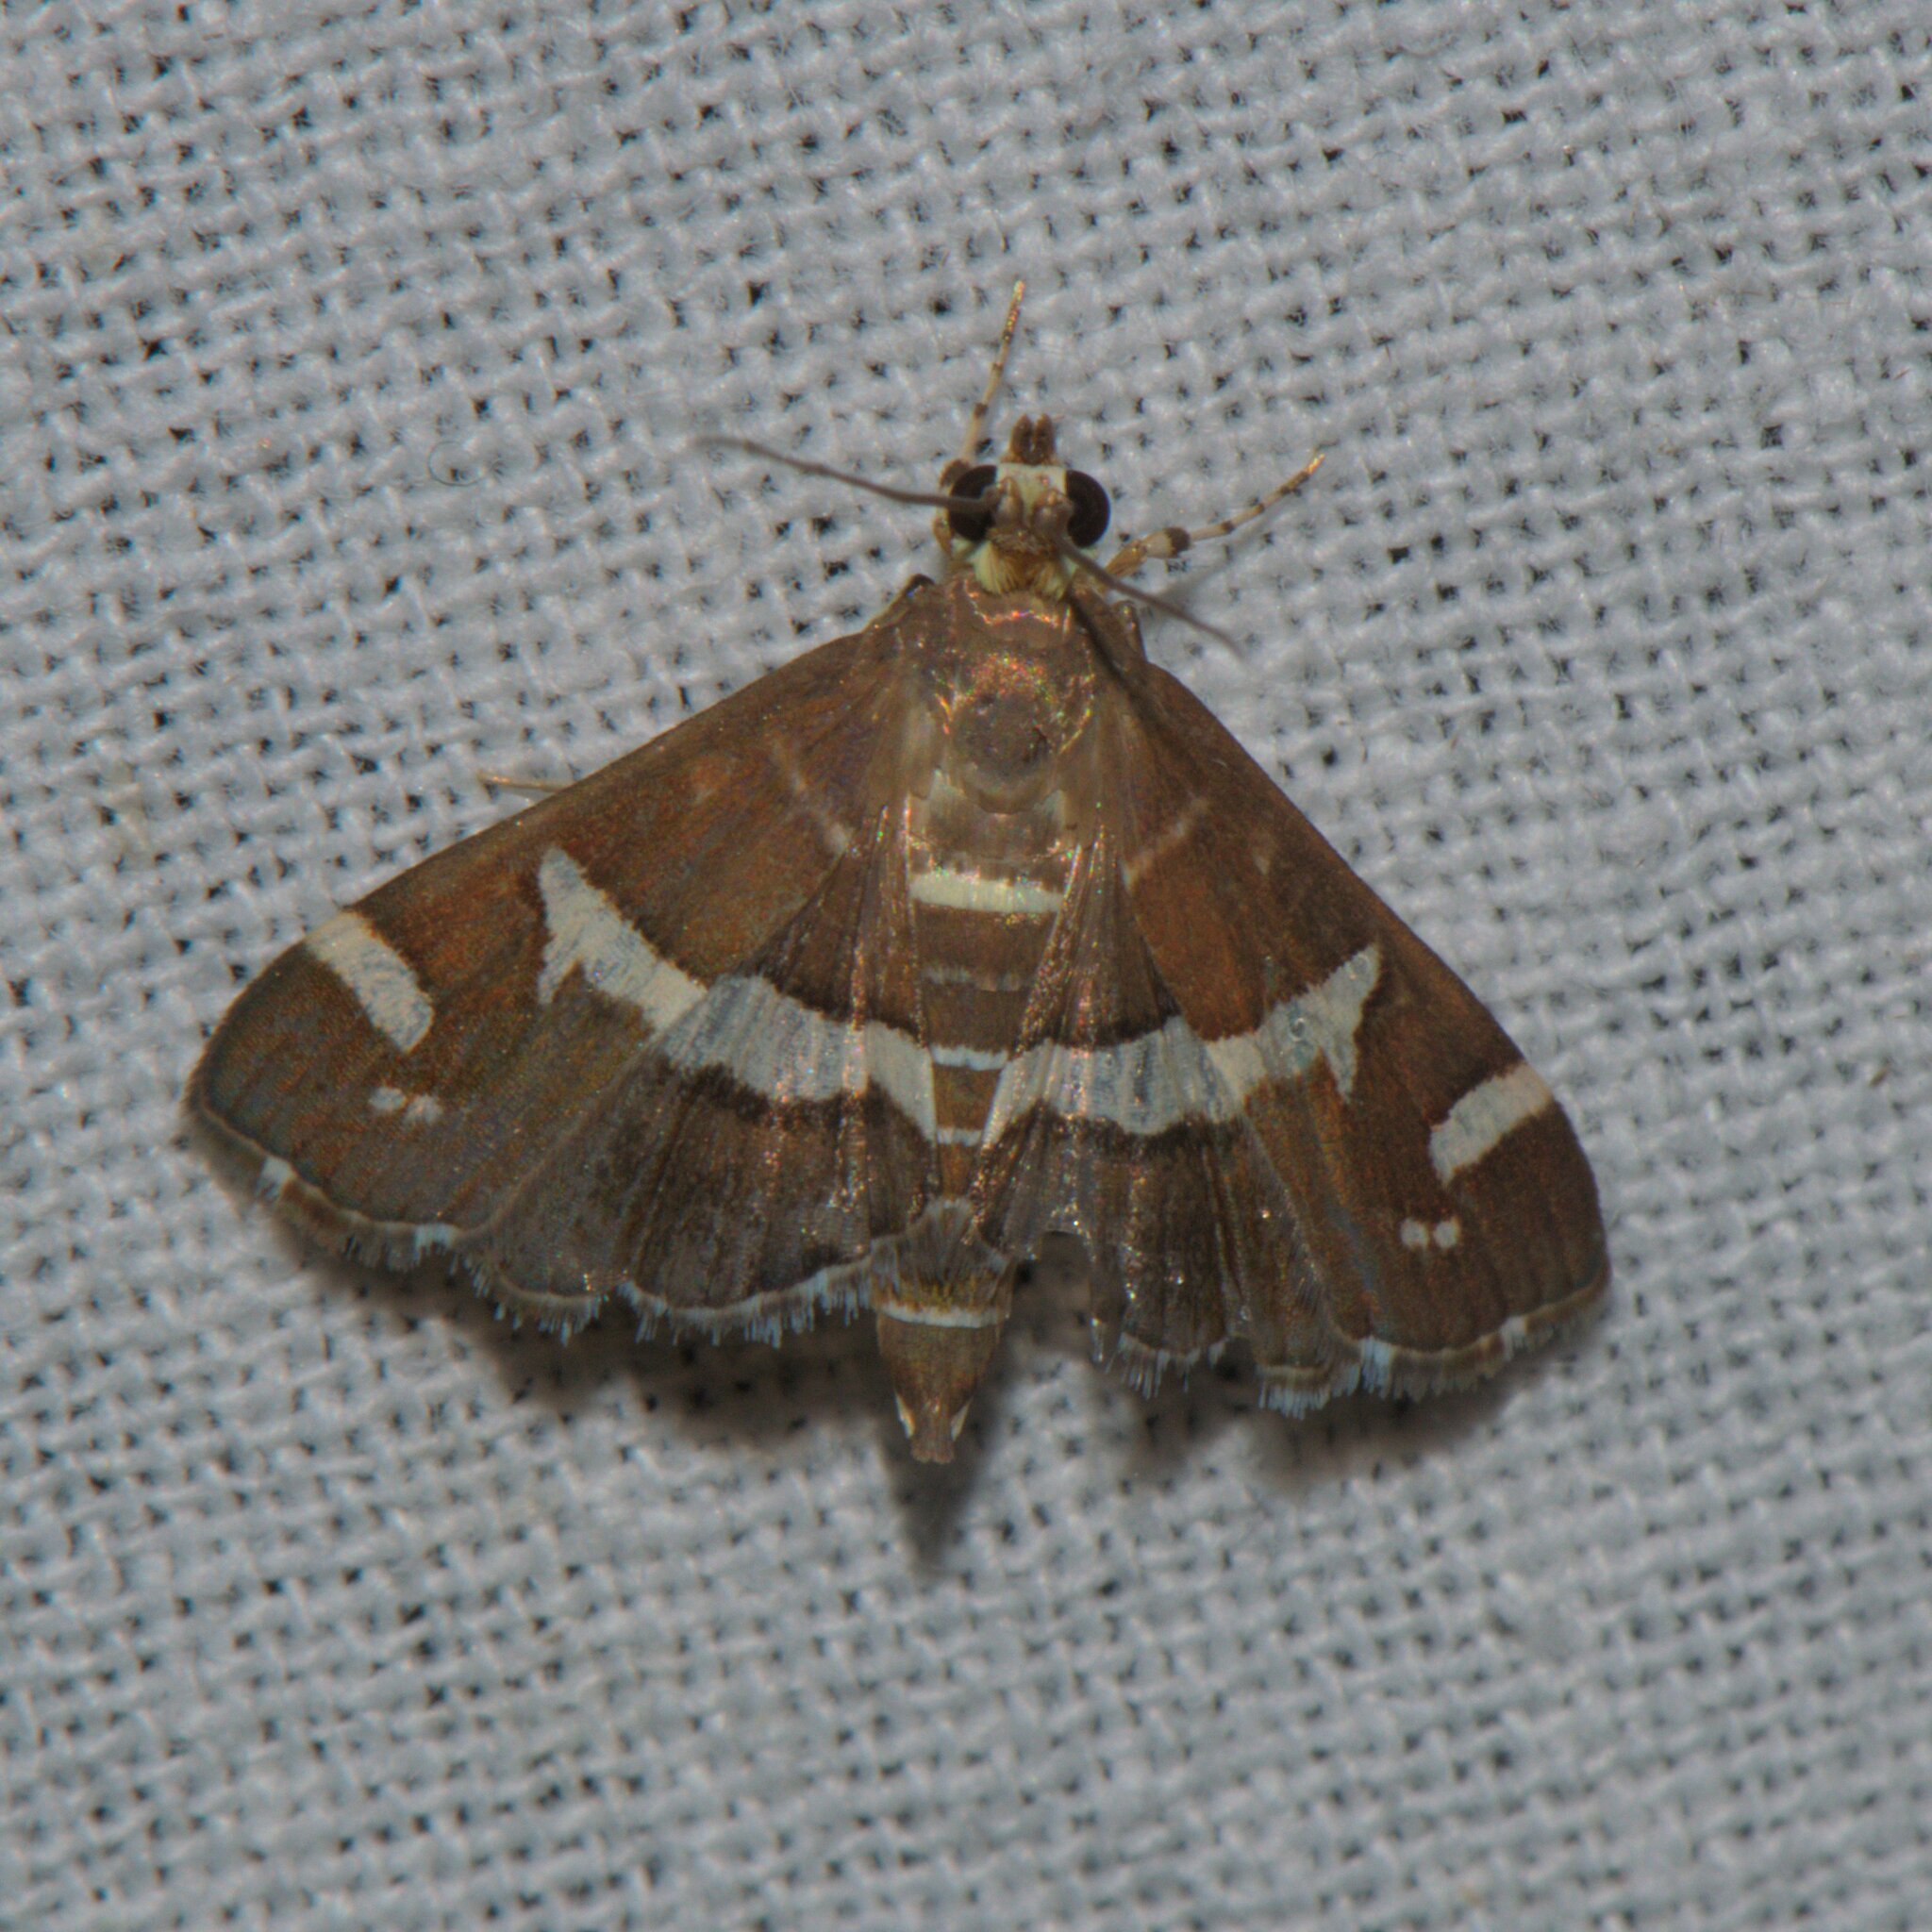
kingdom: Animalia
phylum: Arthropoda
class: Insecta
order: Lepidoptera
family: Crambidae
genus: Spoladea
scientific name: Spoladea recurvalis
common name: Beet webworm moth
